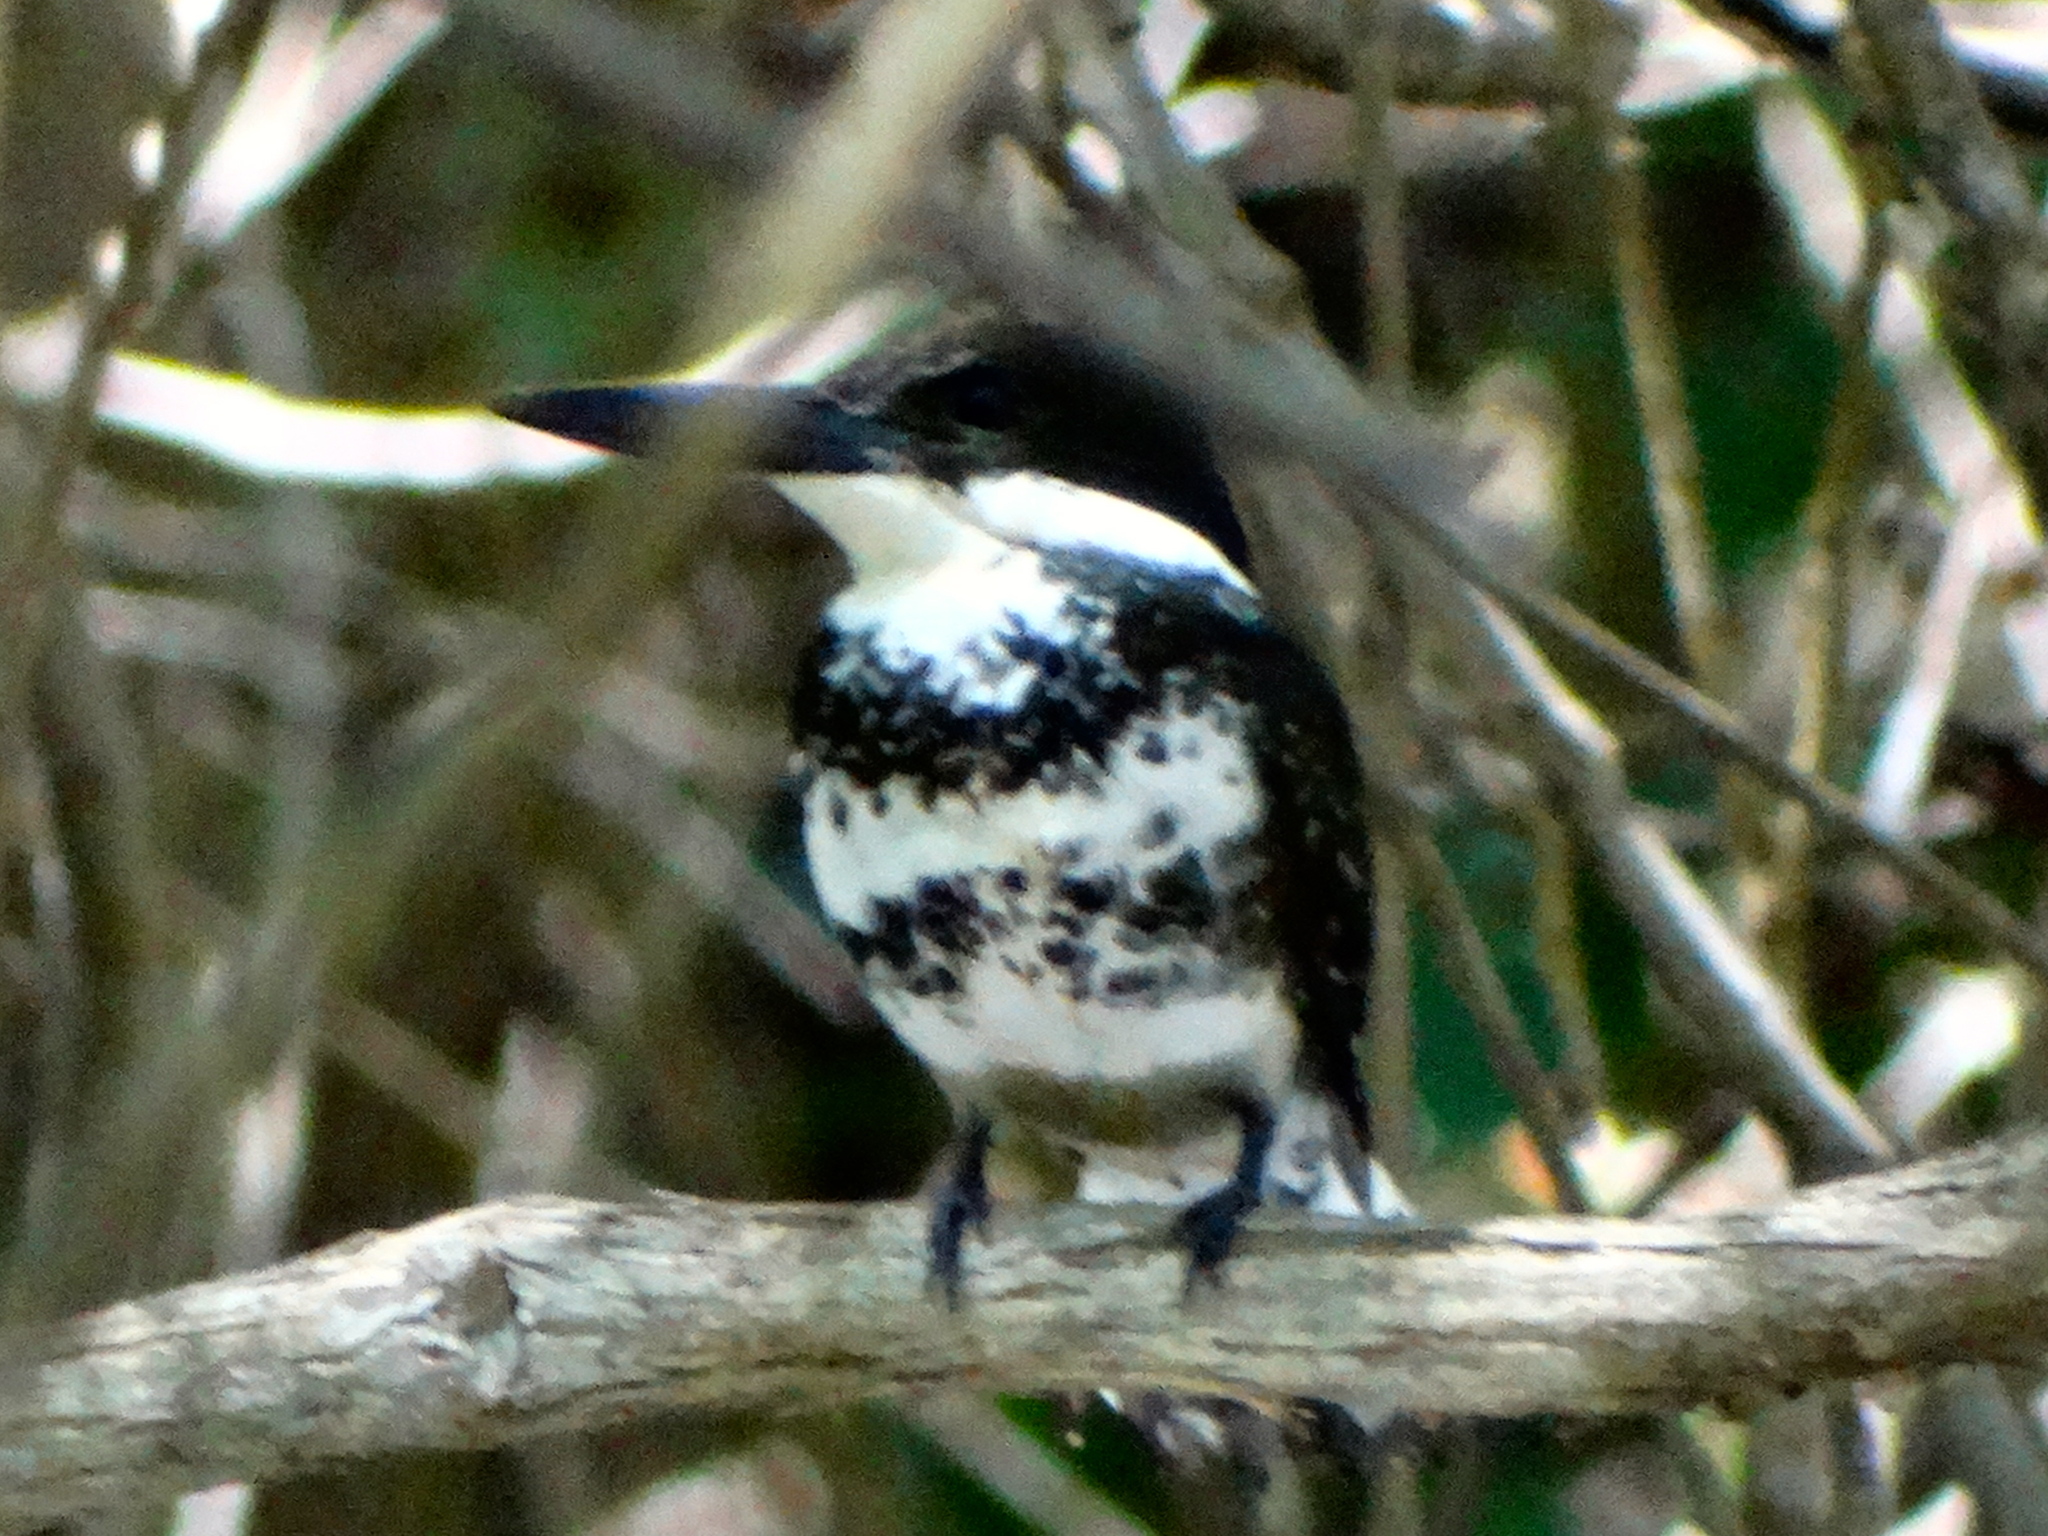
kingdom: Animalia
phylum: Chordata
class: Aves
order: Coraciiformes
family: Alcedinidae
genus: Chloroceryle
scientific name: Chloroceryle americana
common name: Green kingfisher
